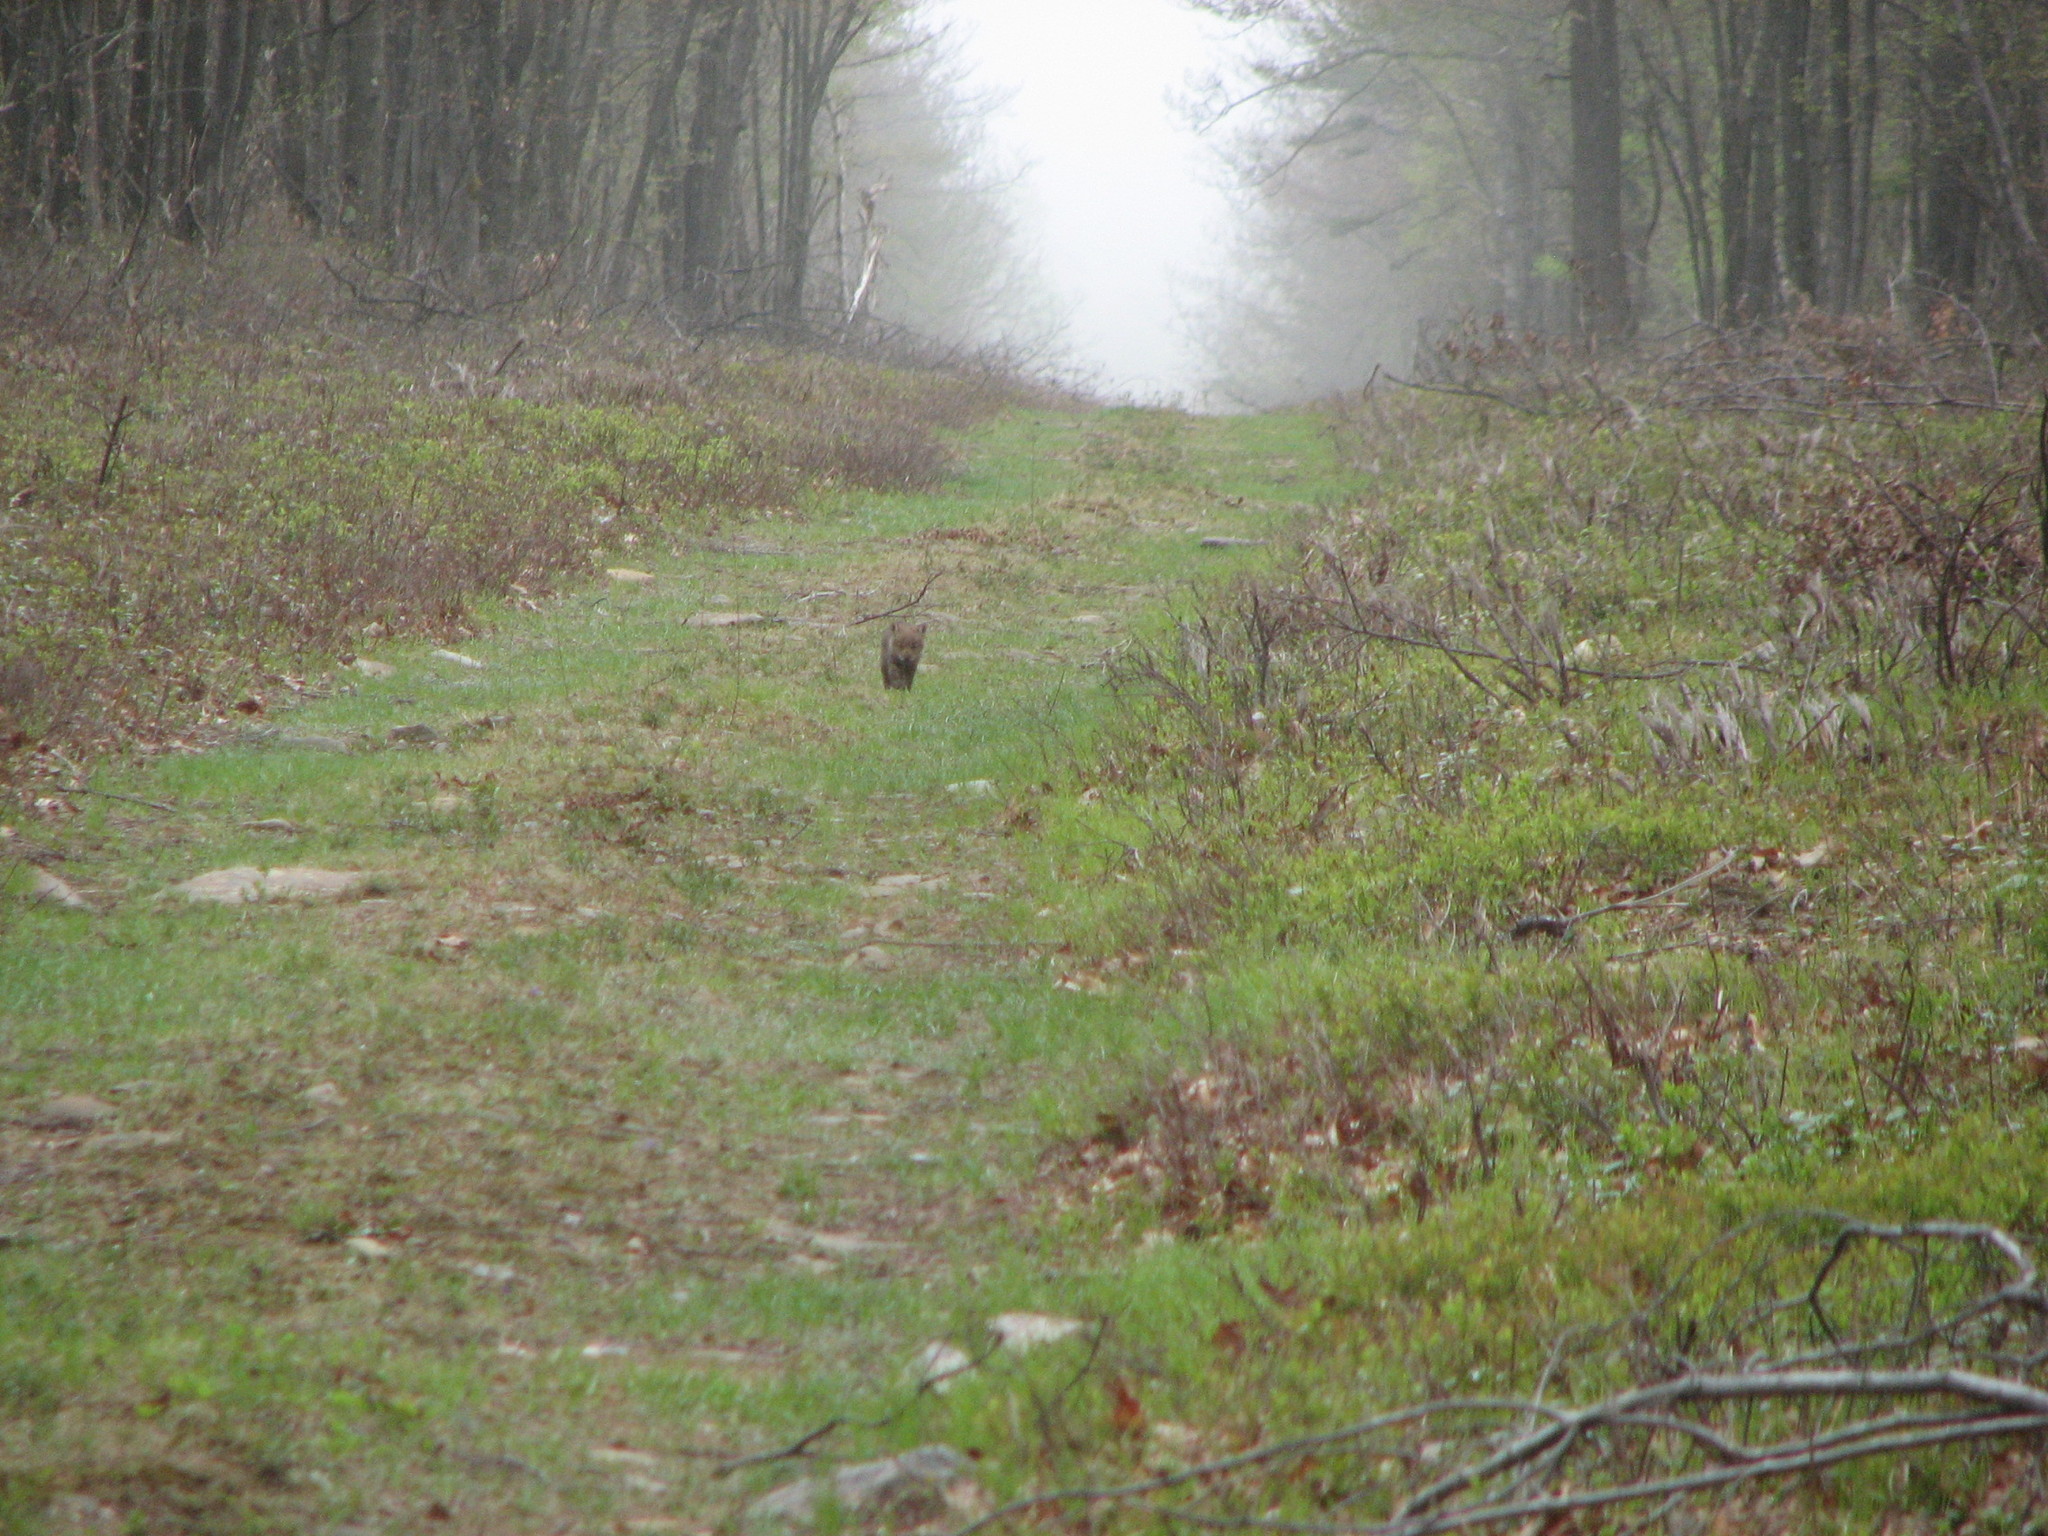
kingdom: Animalia
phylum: Chordata
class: Mammalia
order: Carnivora
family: Canidae
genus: Canis
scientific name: Canis latrans
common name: Coyote
